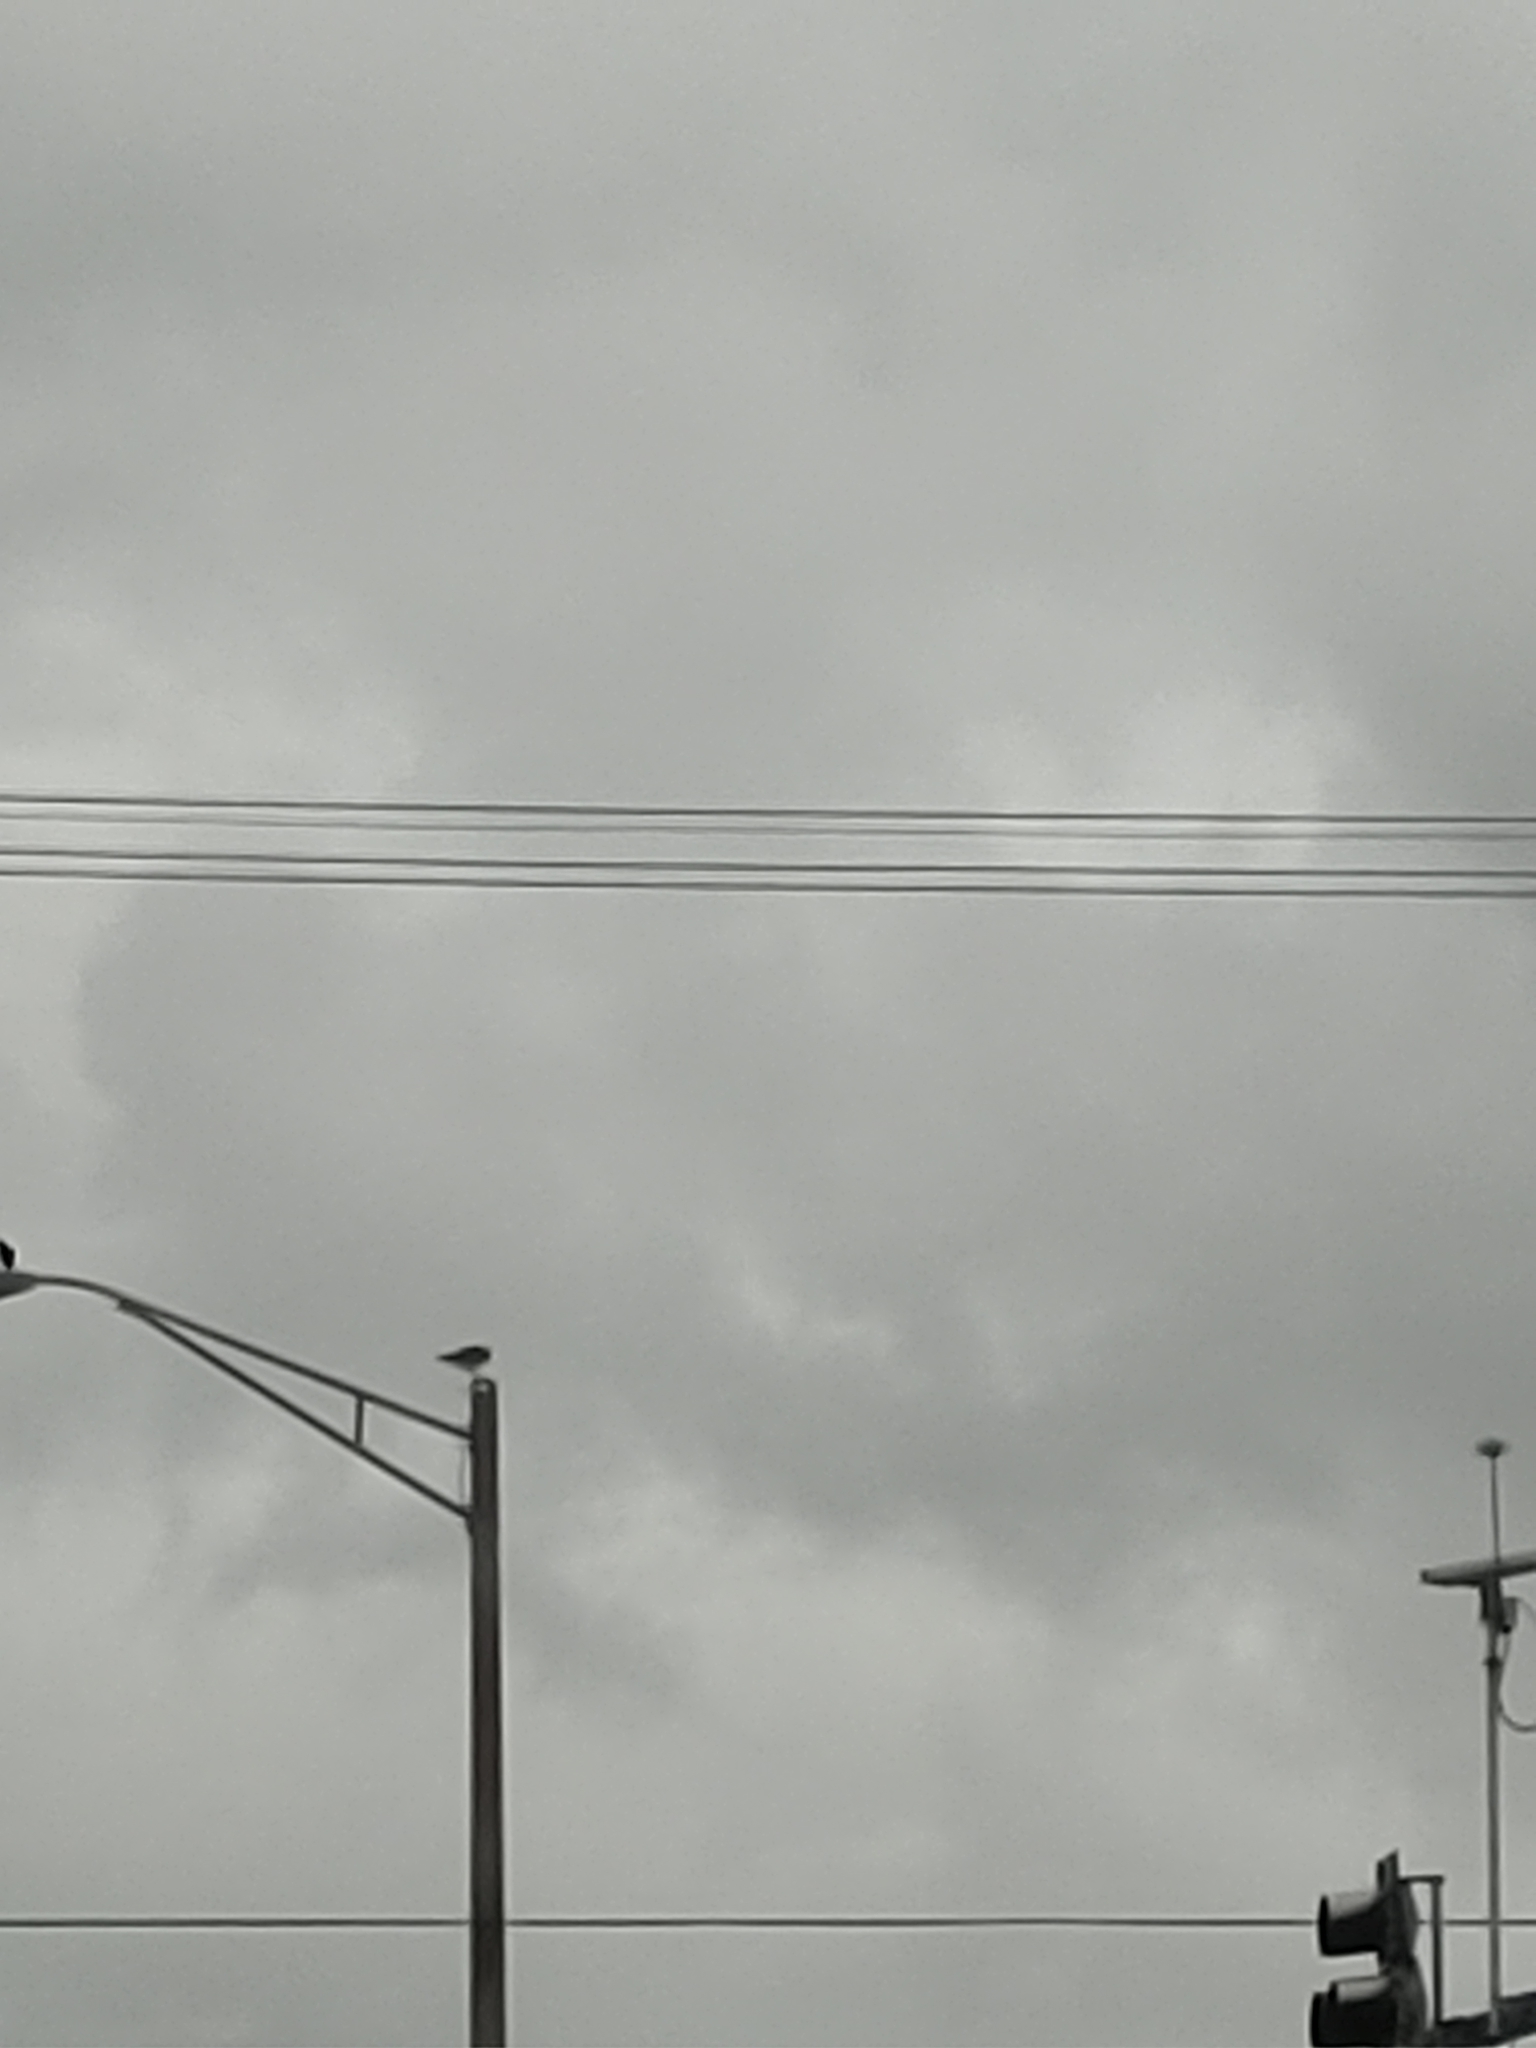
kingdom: Animalia
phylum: Chordata
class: Aves
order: Accipitriformes
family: Pandionidae
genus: Pandion
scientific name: Pandion haliaetus
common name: Osprey
